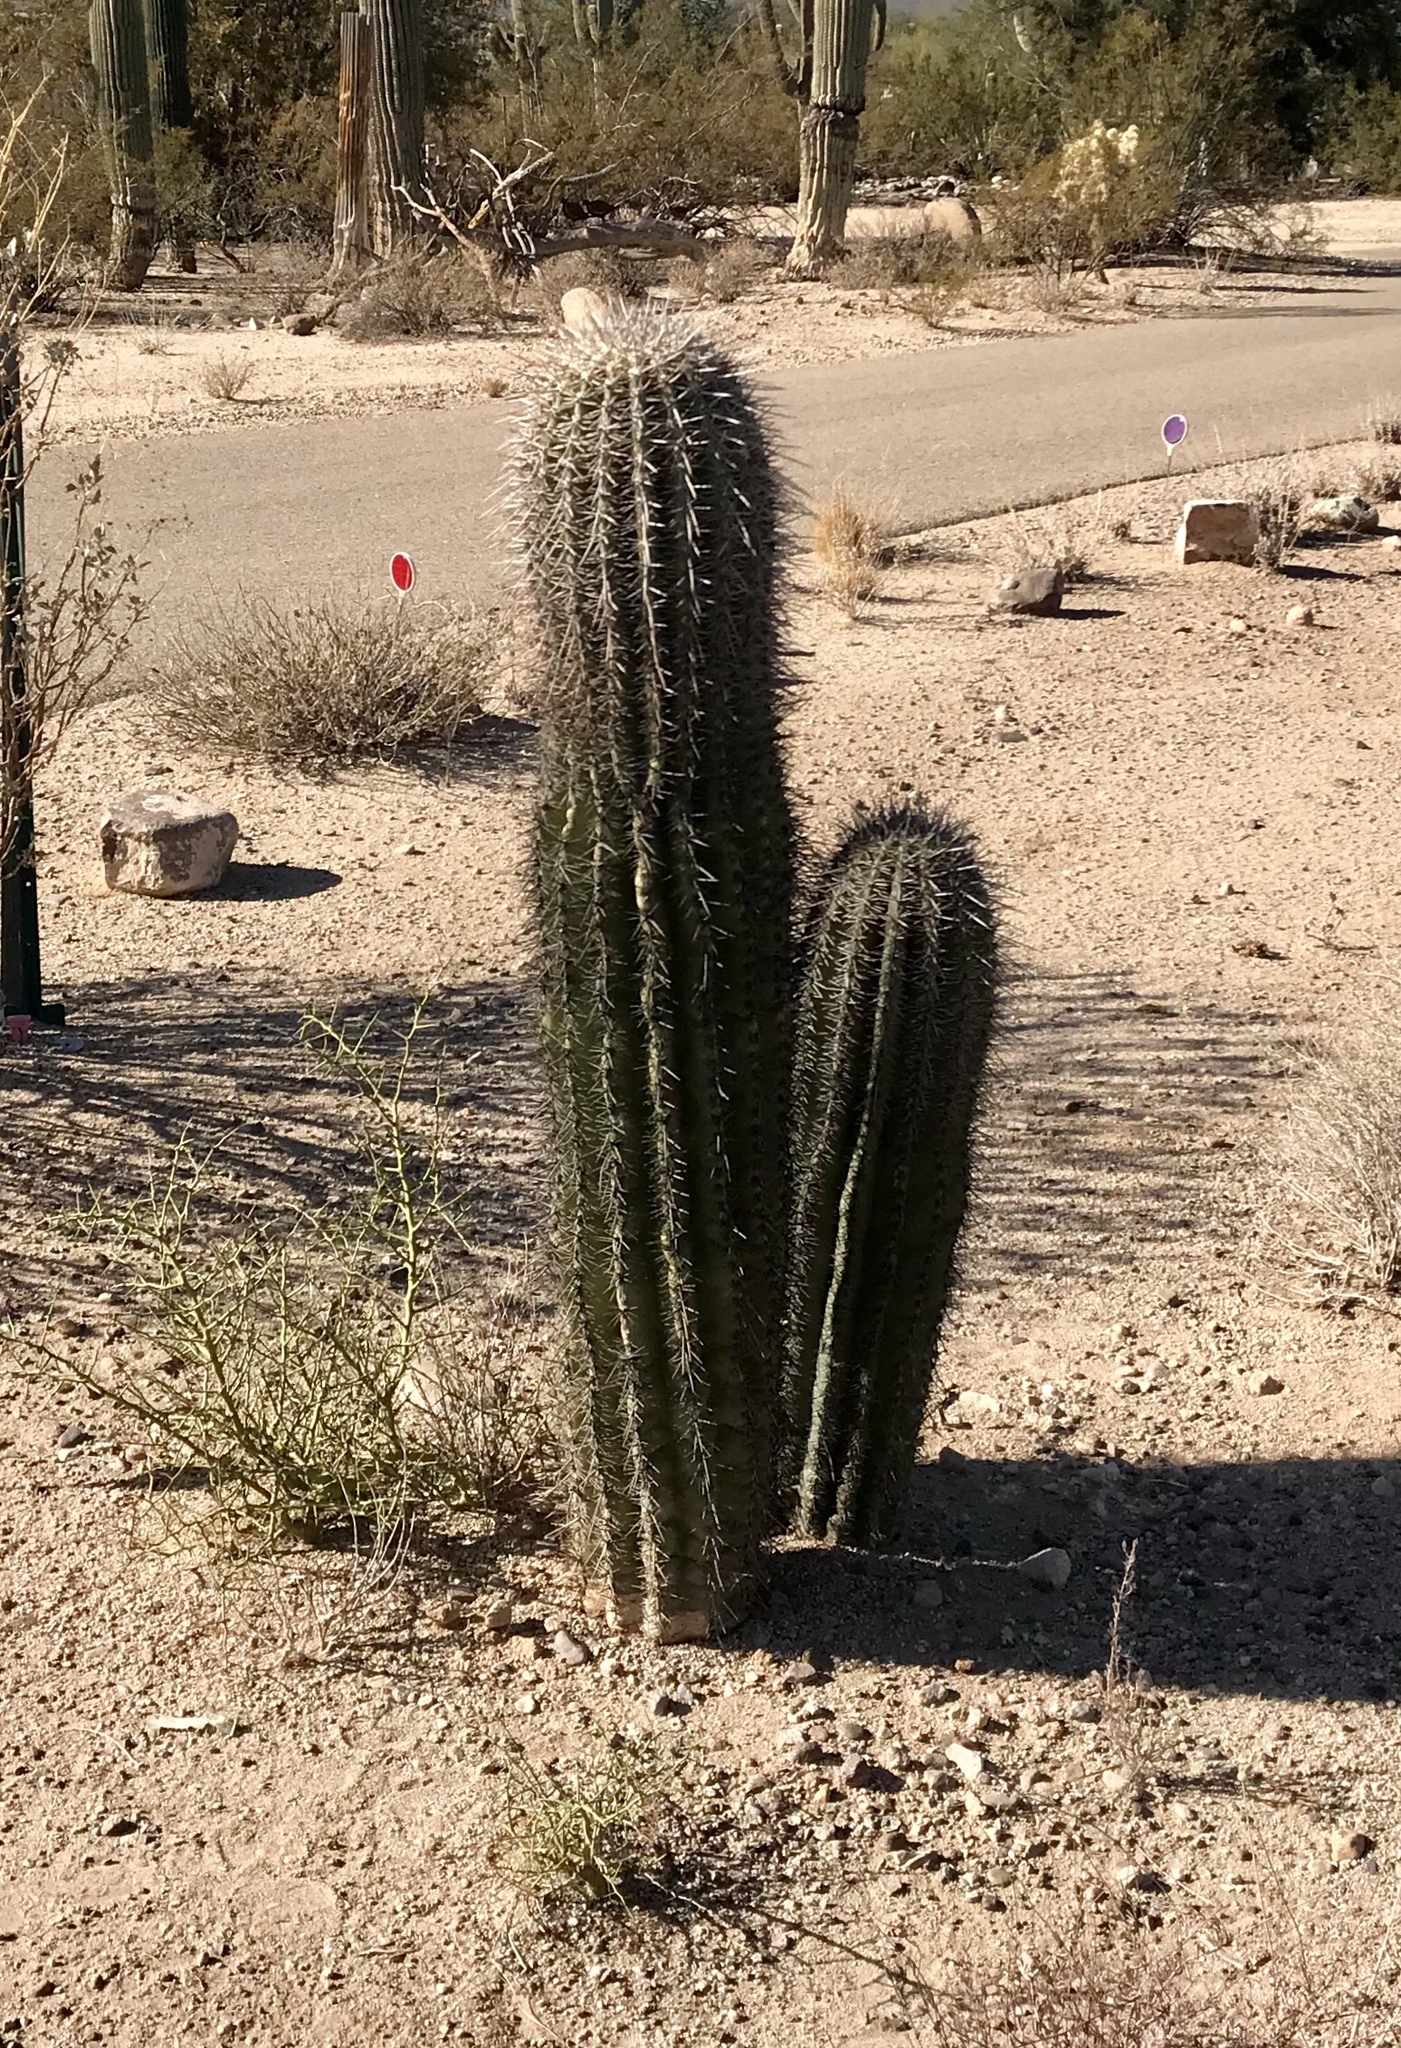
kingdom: Plantae
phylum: Tracheophyta
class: Magnoliopsida
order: Caryophyllales
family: Cactaceae
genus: Carnegiea
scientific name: Carnegiea gigantea
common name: Saguaro
